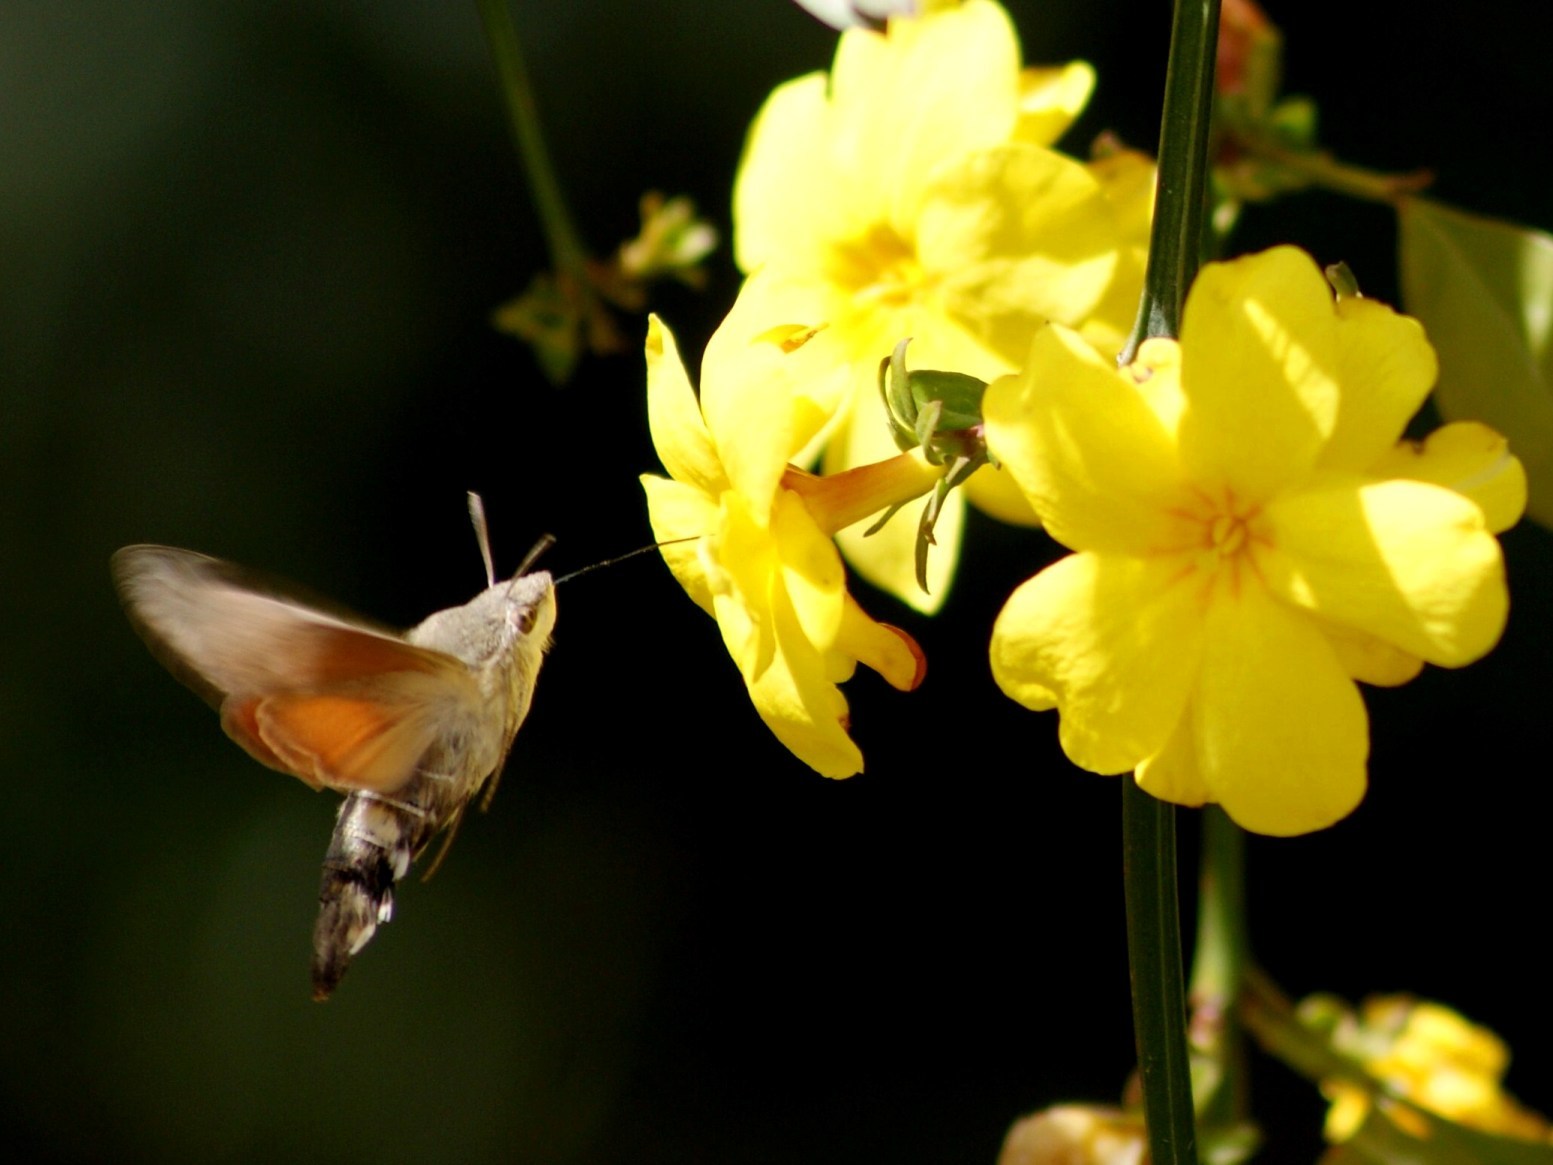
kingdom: Animalia
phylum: Arthropoda
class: Insecta
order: Lepidoptera
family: Sphingidae
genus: Macroglossum
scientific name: Macroglossum stellatarum
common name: Humming-bird hawk-moth
